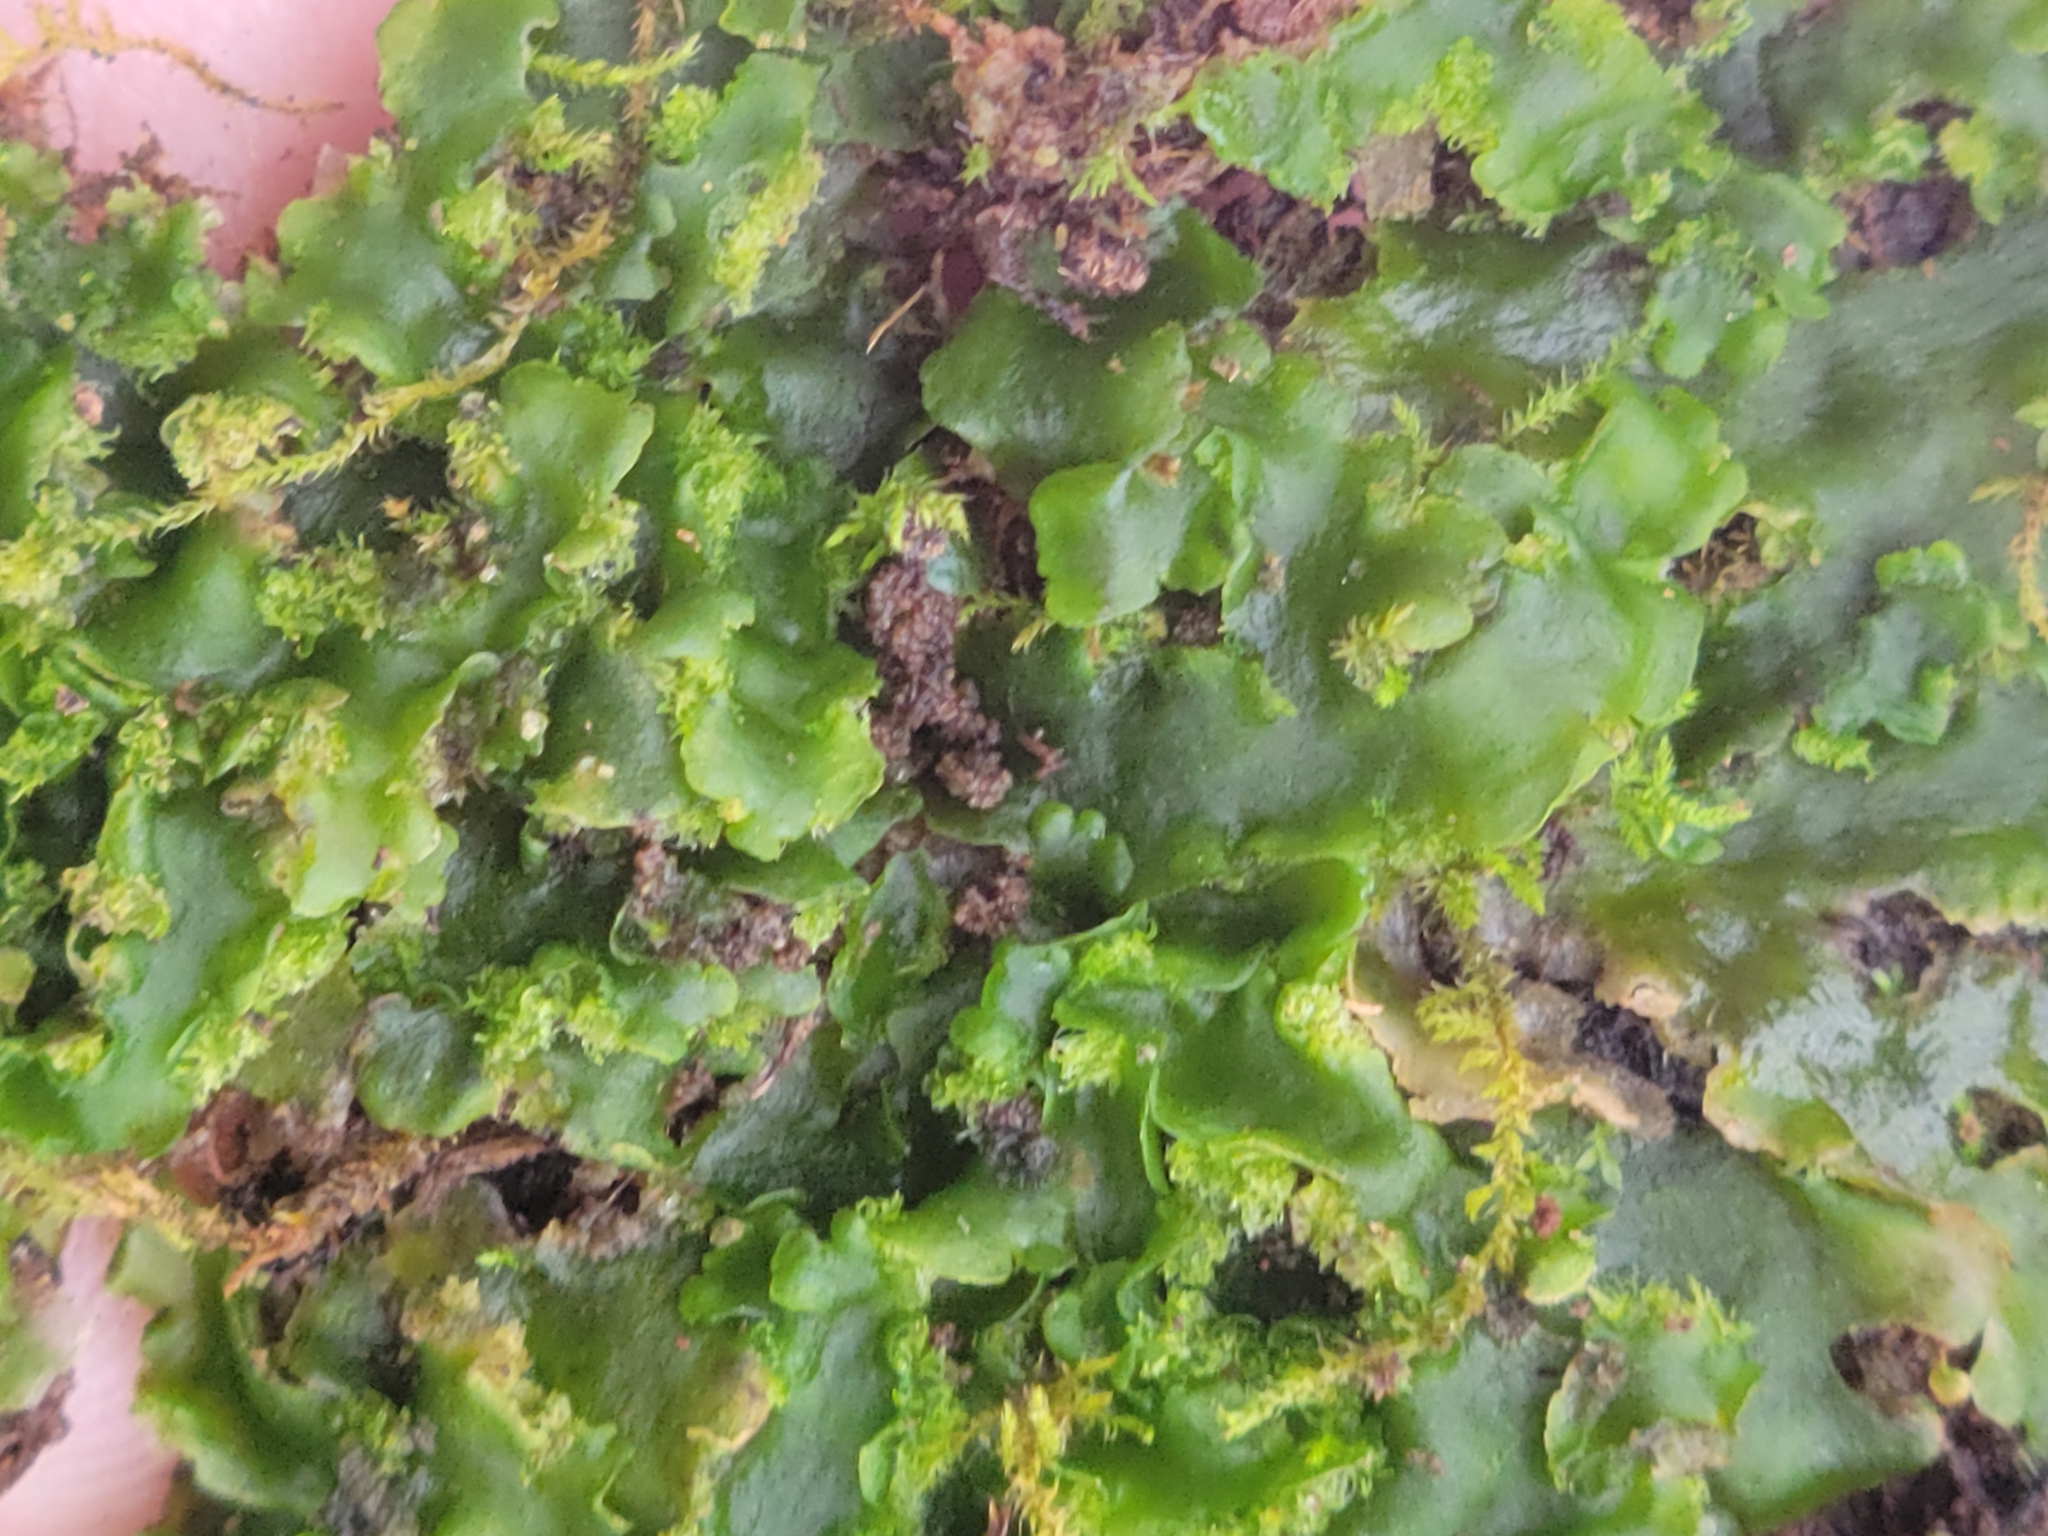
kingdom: Plantae
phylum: Marchantiophyta
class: Jungermanniopsida
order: Metzgeriales
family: Aneuraceae
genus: Aneura
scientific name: Aneura pinguis
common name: Common greasewort
